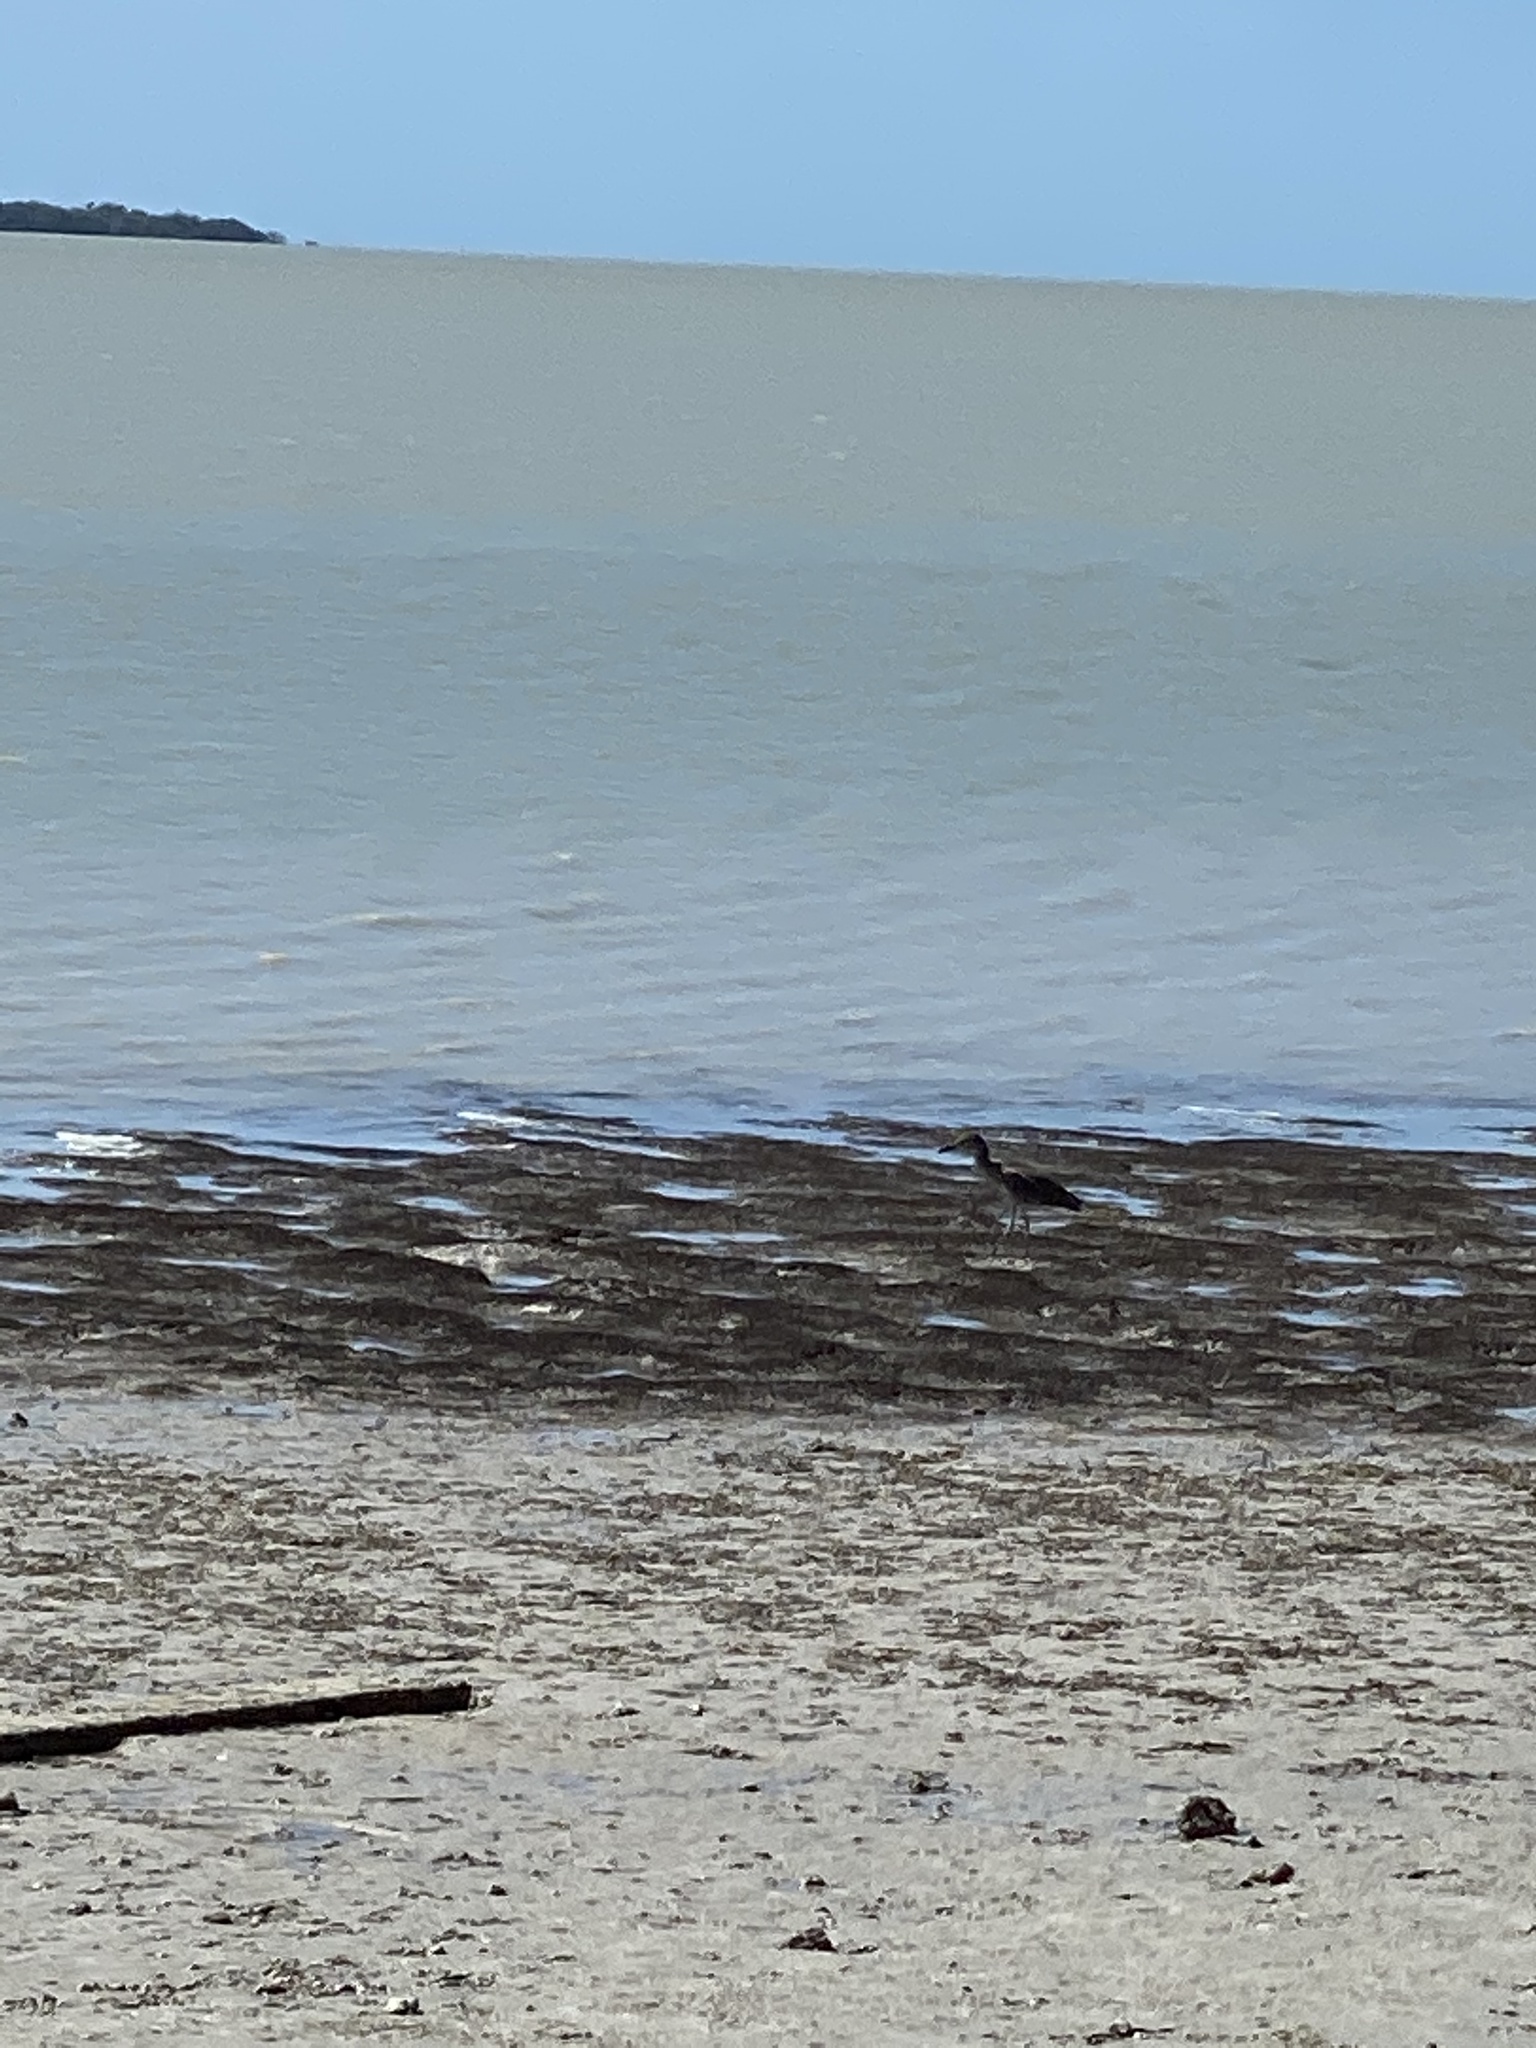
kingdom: Animalia
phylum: Chordata
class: Aves
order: Pelecaniformes
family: Ardeidae
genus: Nyctanassa
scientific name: Nyctanassa violacea
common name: Yellow-crowned night heron
